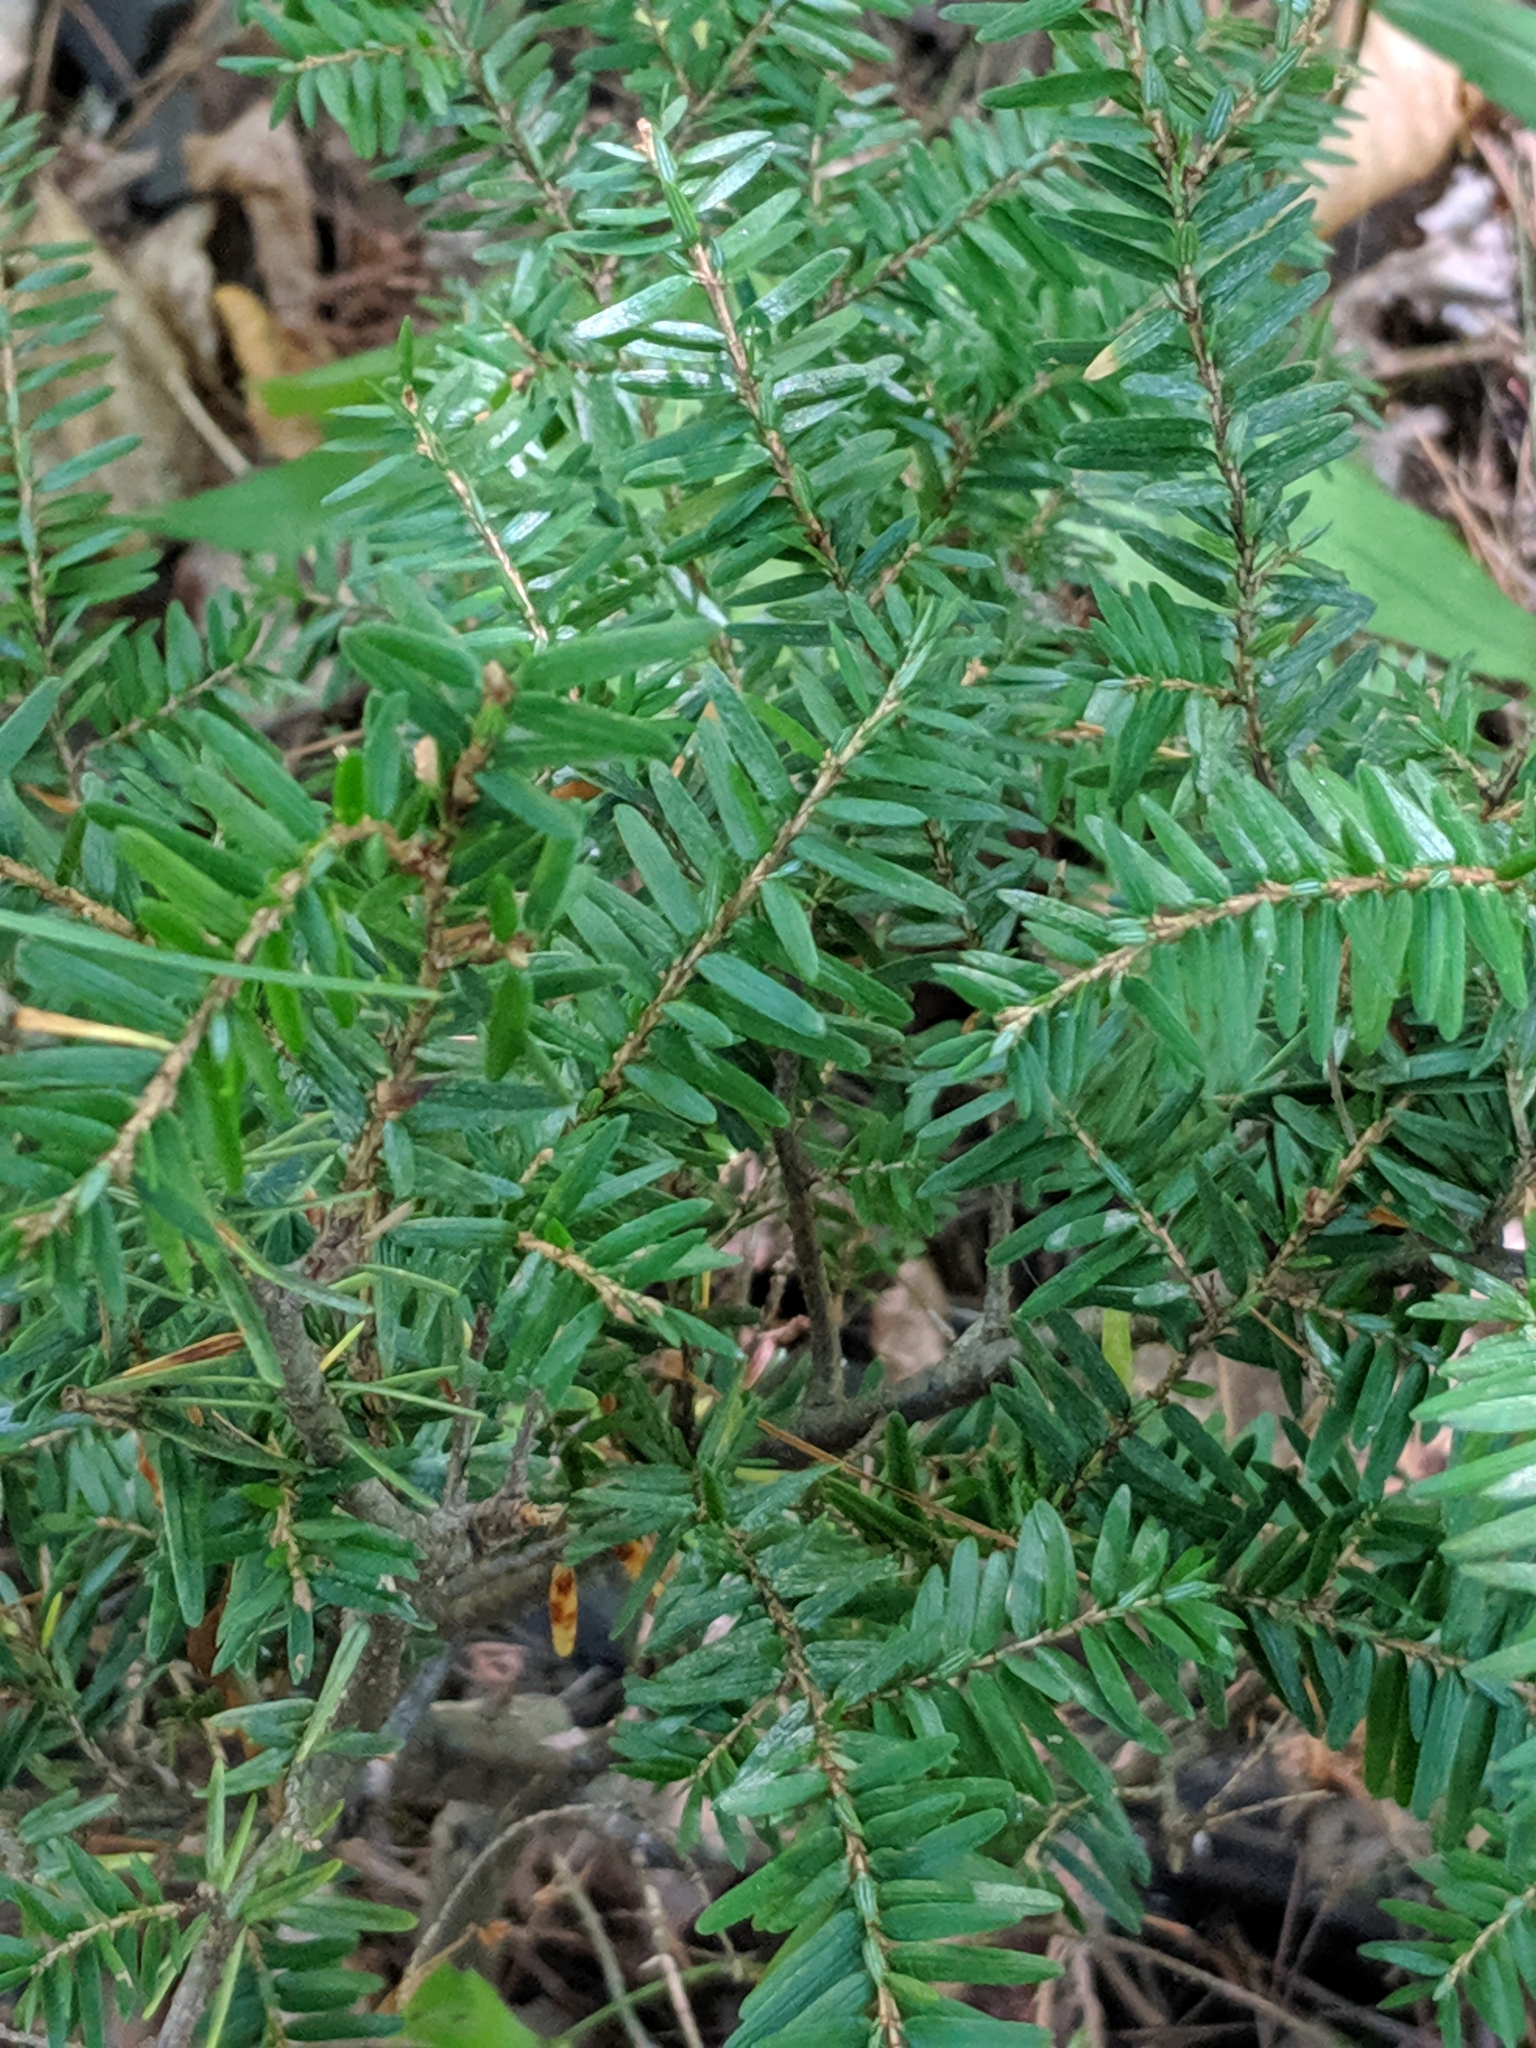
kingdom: Plantae
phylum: Tracheophyta
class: Pinopsida
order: Pinales
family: Pinaceae
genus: Tsuga
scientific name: Tsuga canadensis
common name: Eastern hemlock
